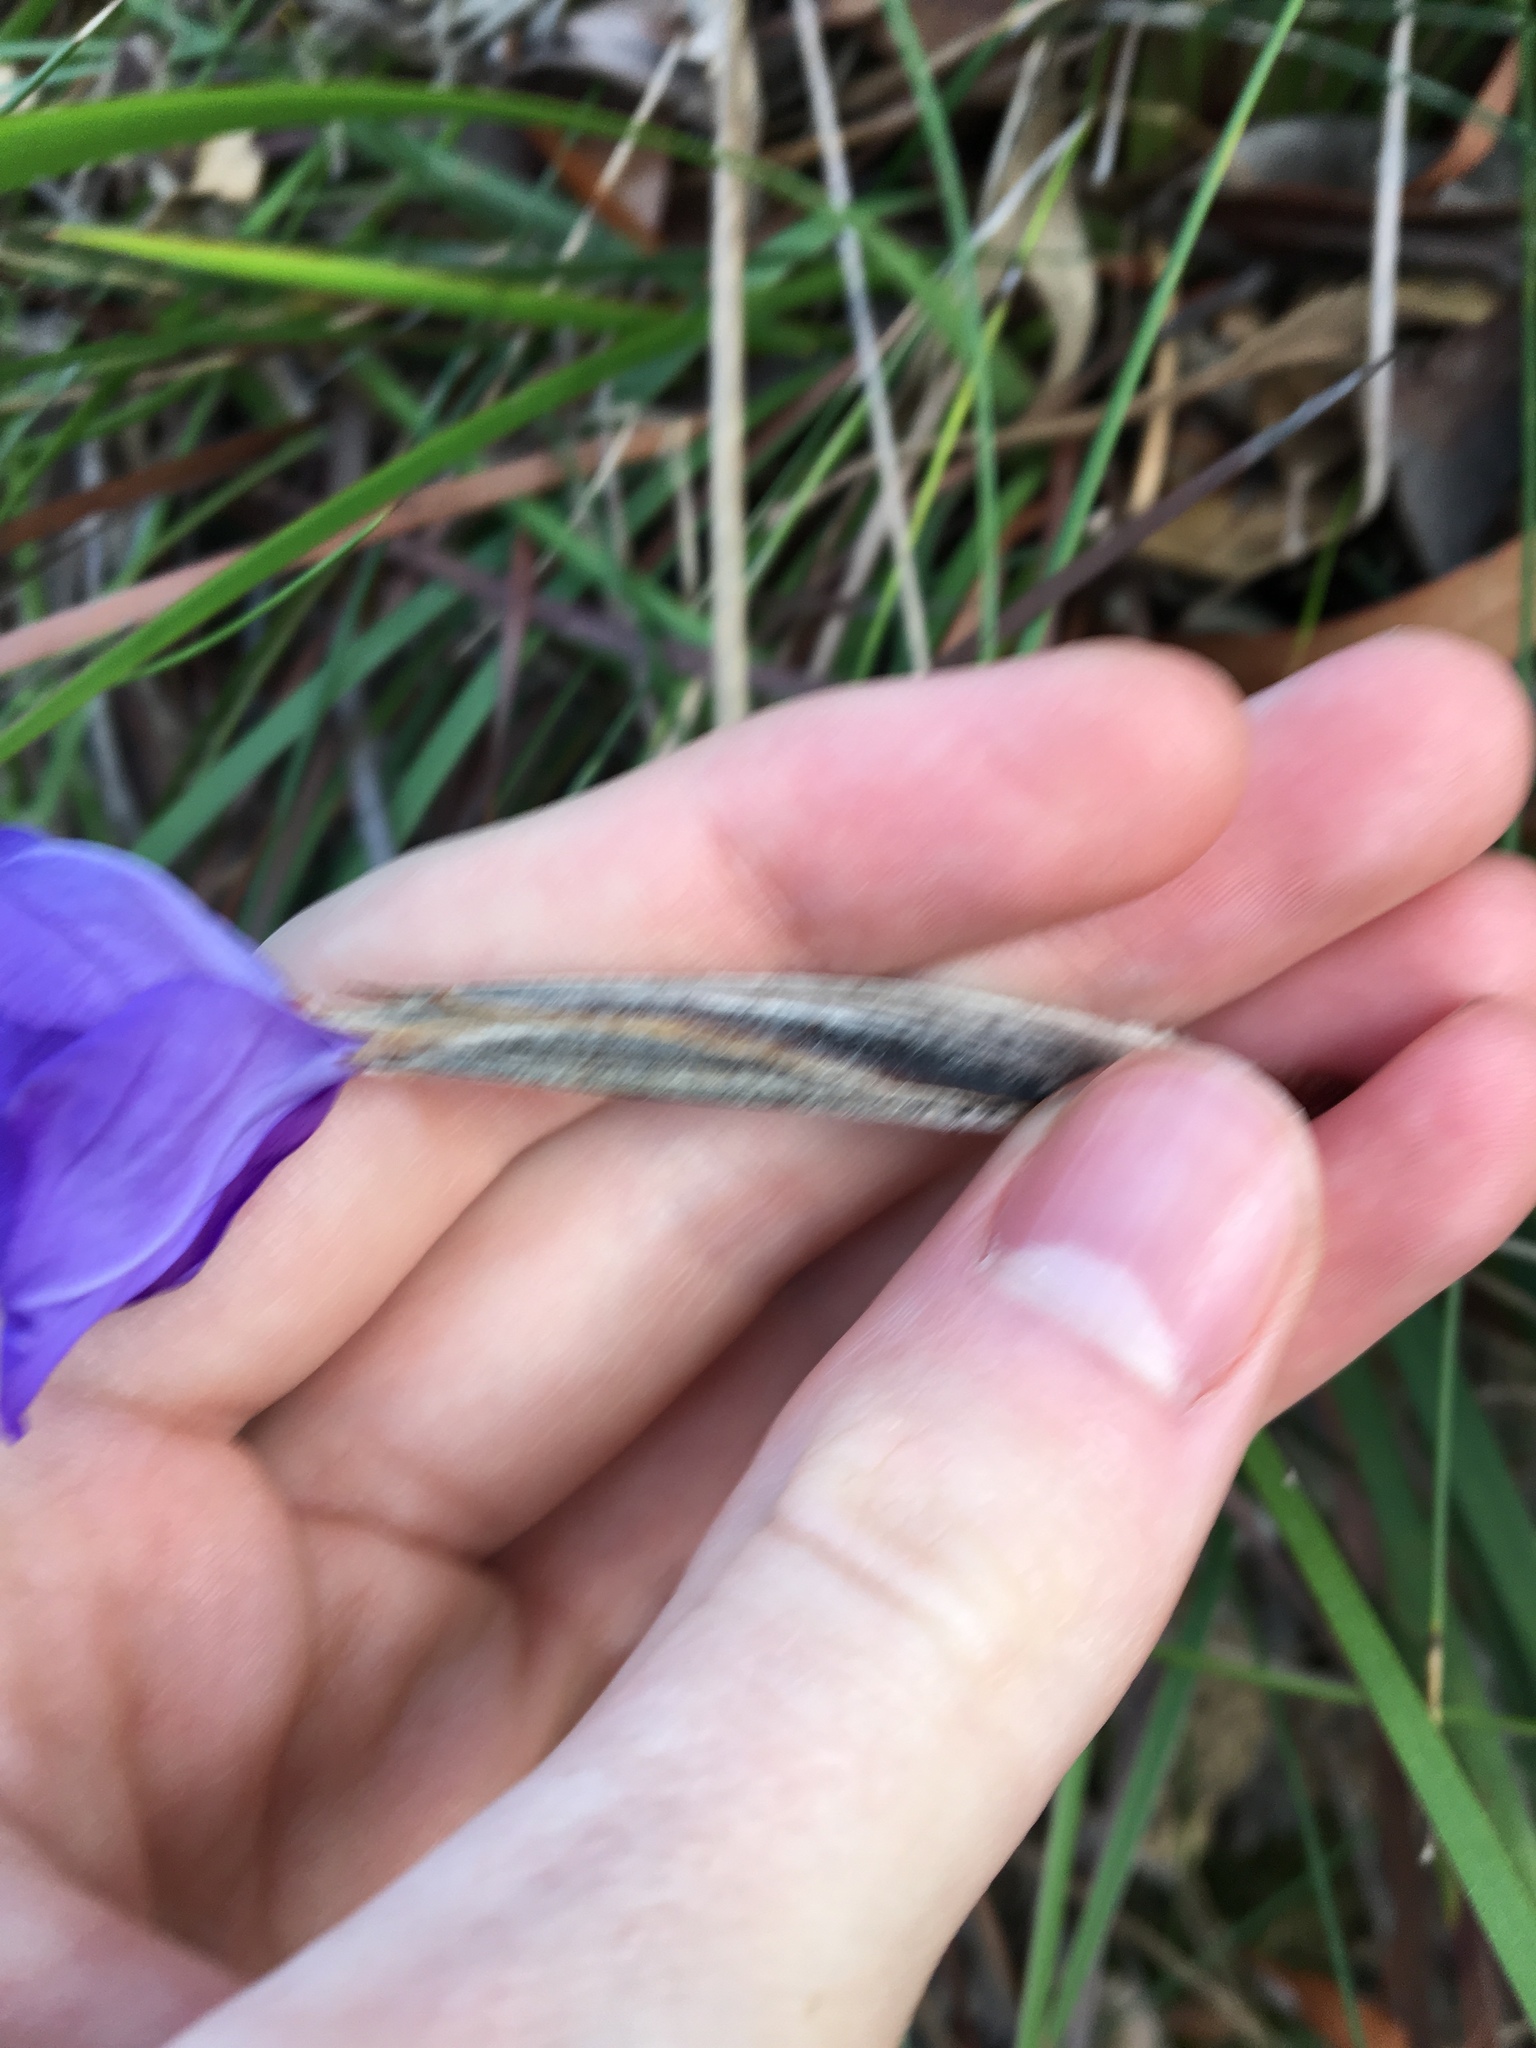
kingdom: Plantae
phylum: Tracheophyta
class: Liliopsida
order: Asparagales
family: Iridaceae
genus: Patersonia
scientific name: Patersonia sericea
